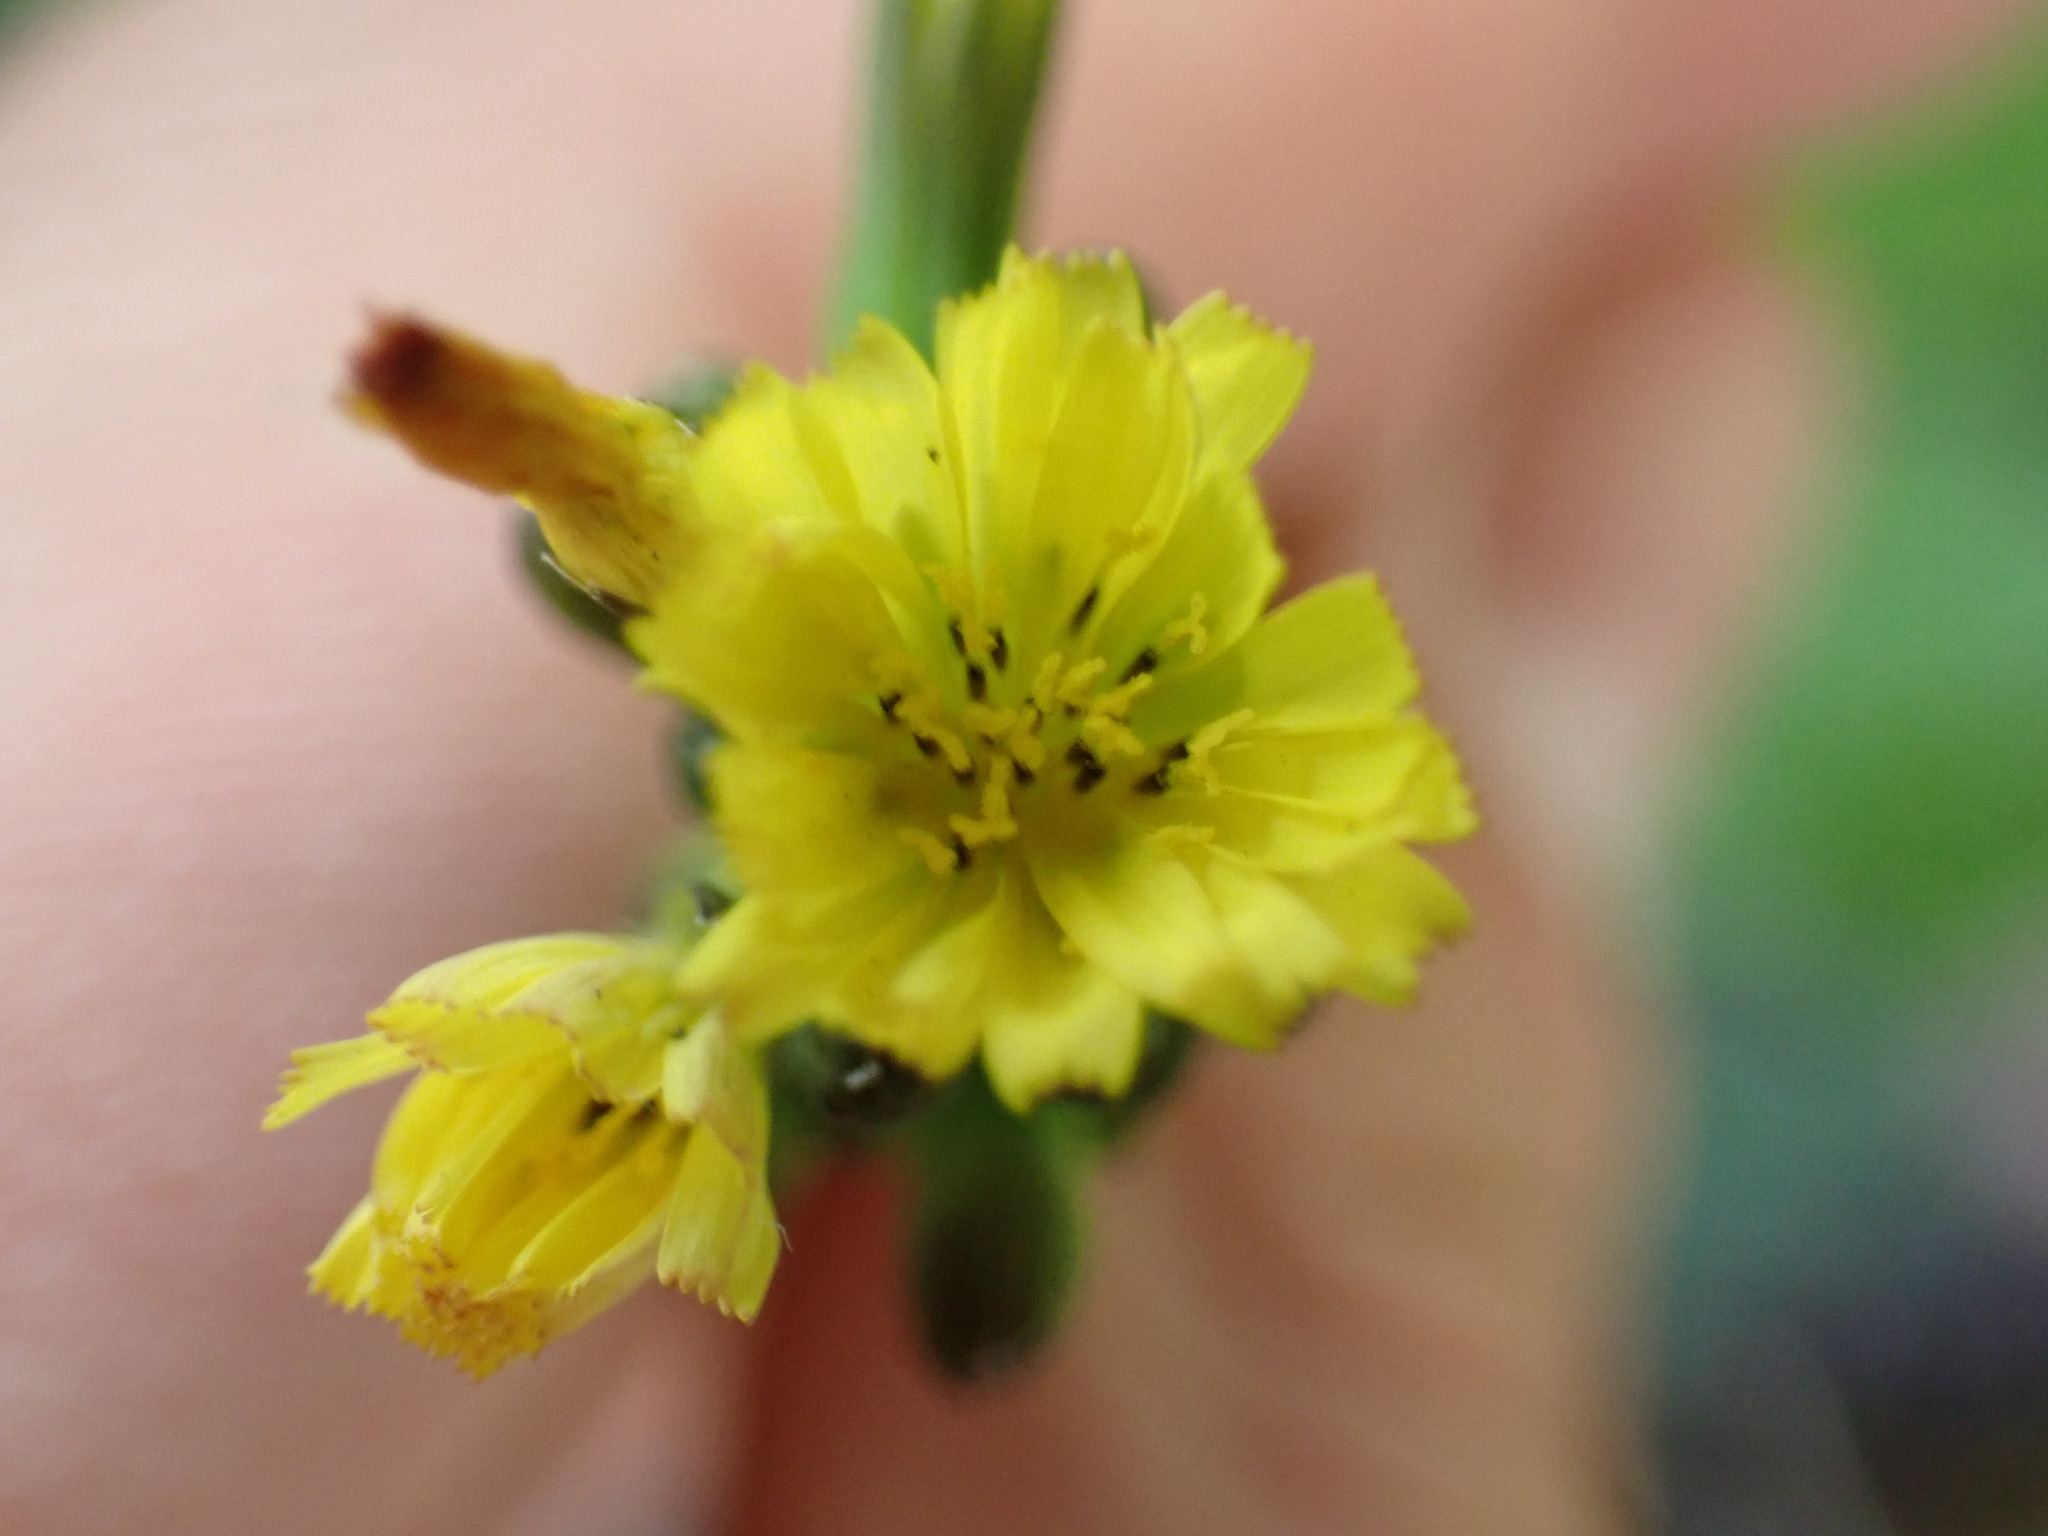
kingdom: Plantae
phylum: Tracheophyta
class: Magnoliopsida
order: Asterales
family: Asteraceae
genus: Youngia
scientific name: Youngia japonica
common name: Oriental false hawksbeard
